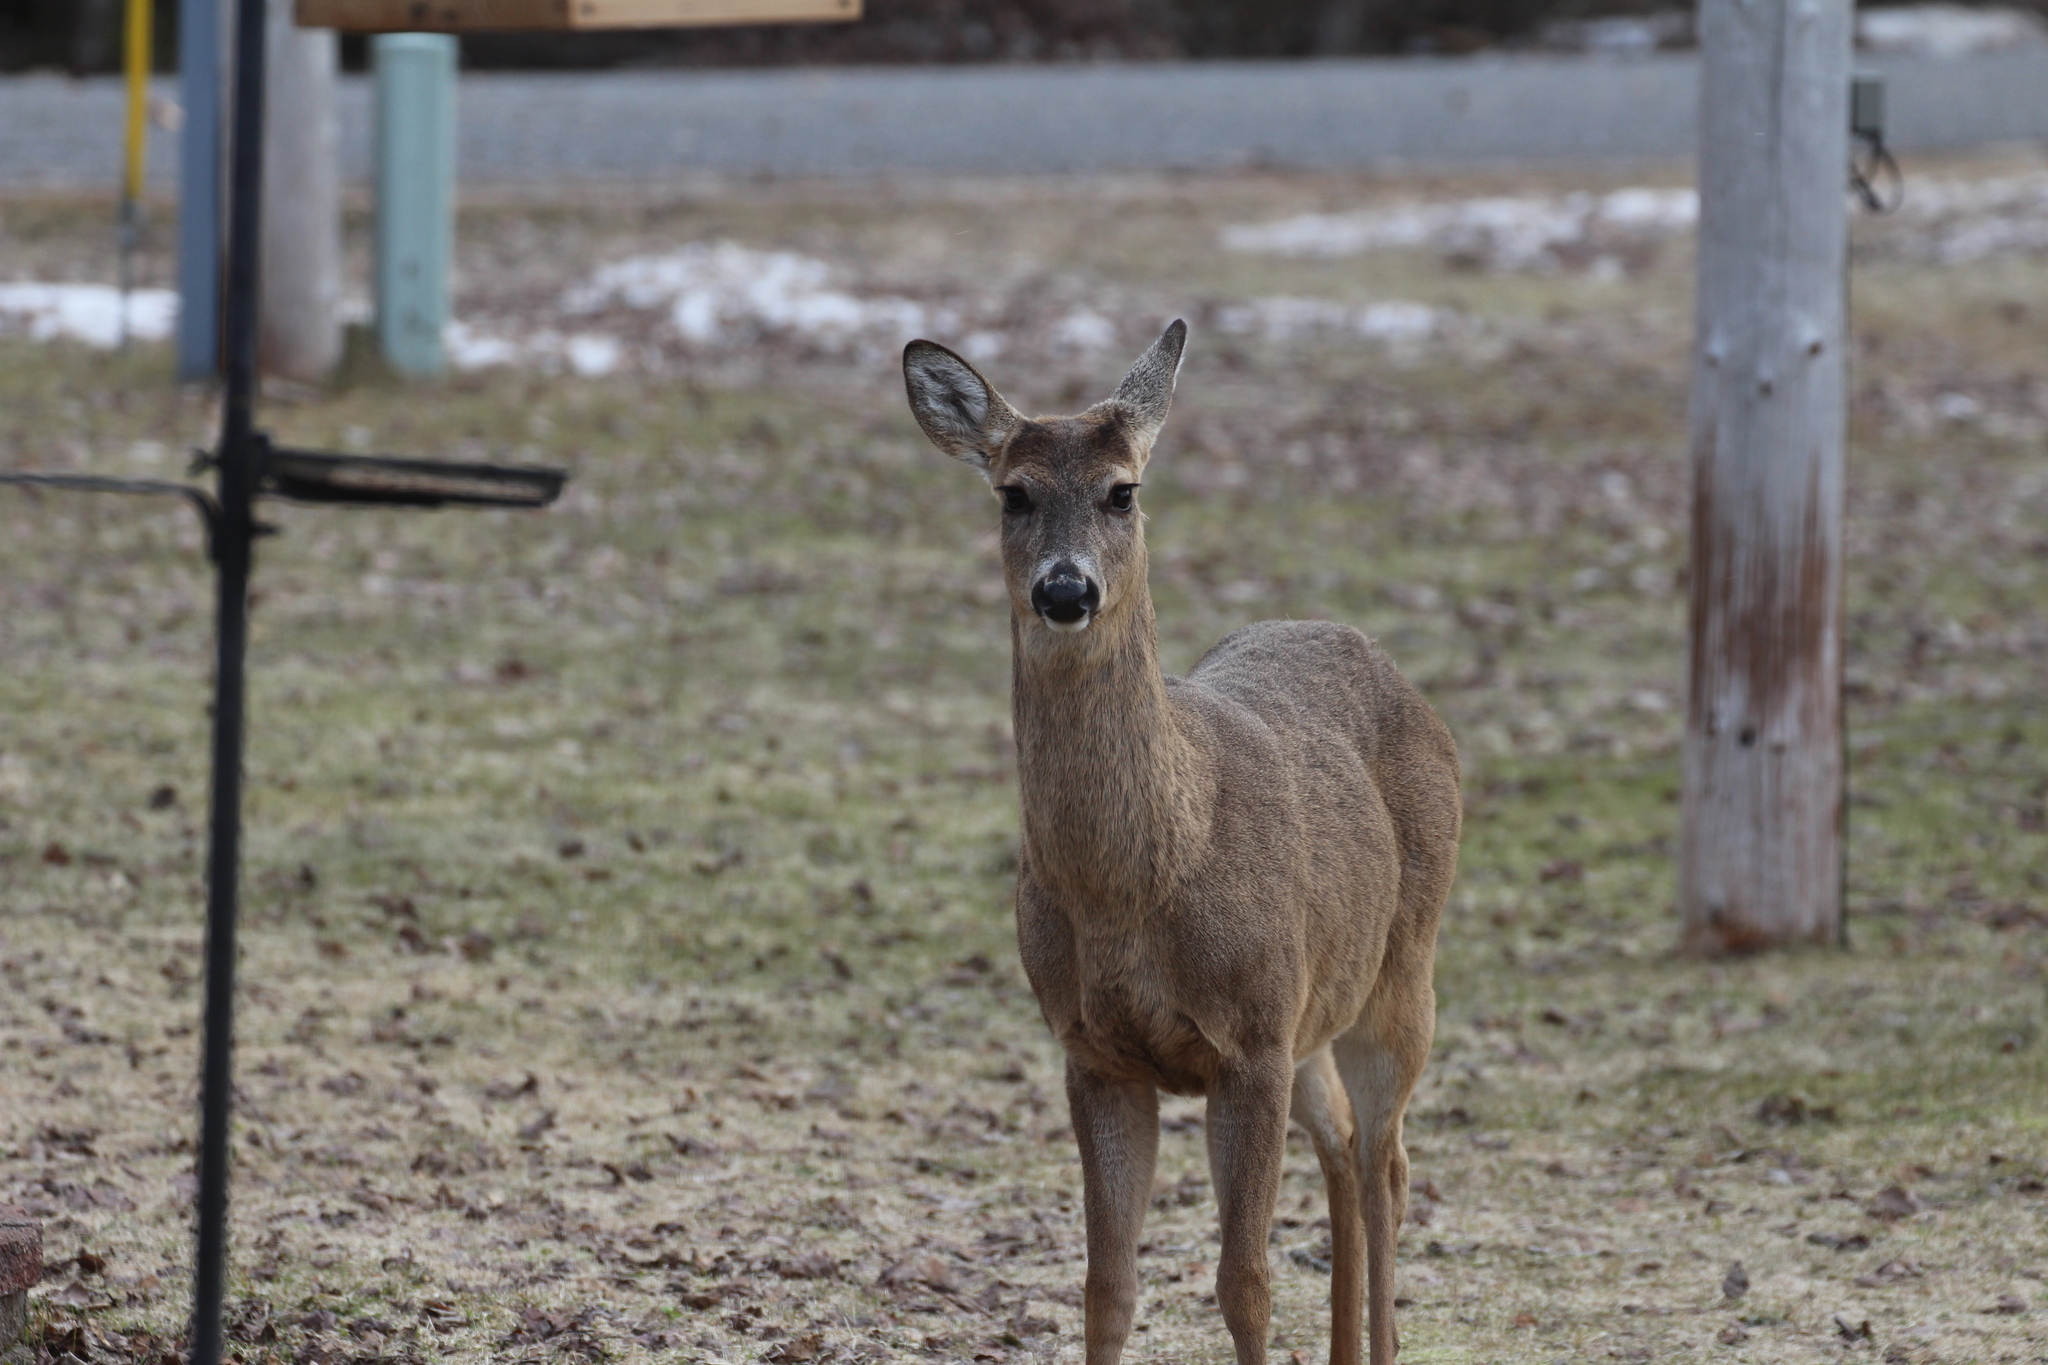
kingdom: Animalia
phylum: Chordata
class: Mammalia
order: Artiodactyla
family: Cervidae
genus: Odocoileus
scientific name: Odocoileus virginianus
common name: White-tailed deer
